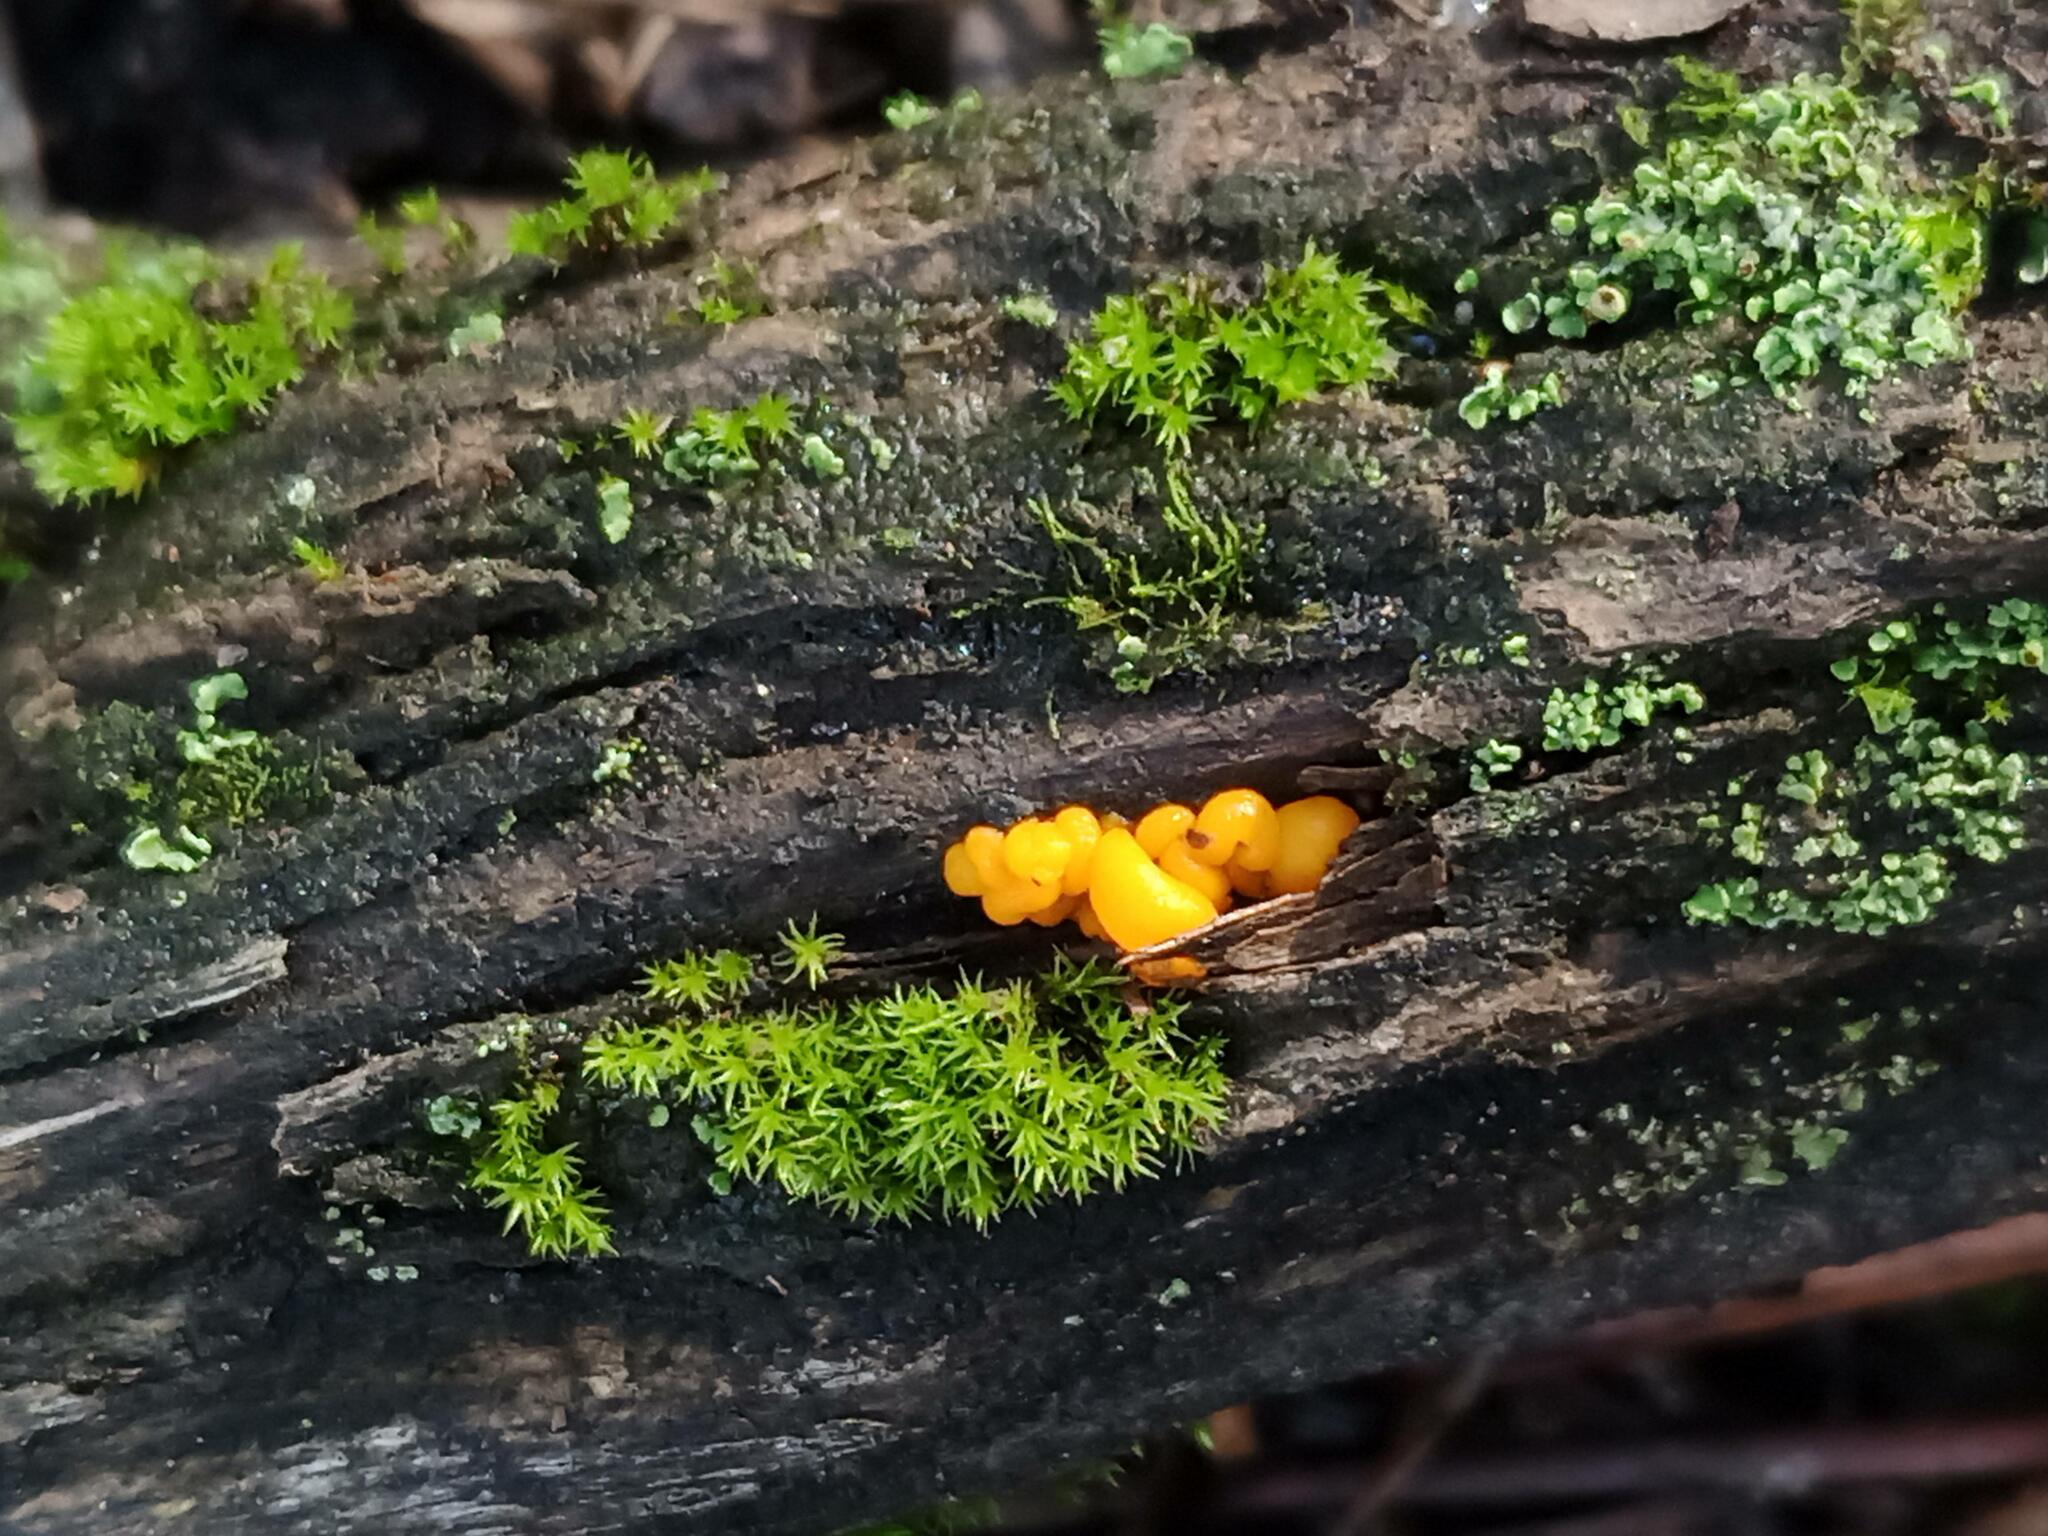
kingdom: Fungi
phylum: Basidiomycota
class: Tremellomycetes
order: Tremellales
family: Tremellaceae
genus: Tremella
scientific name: Tremella mesenterica
